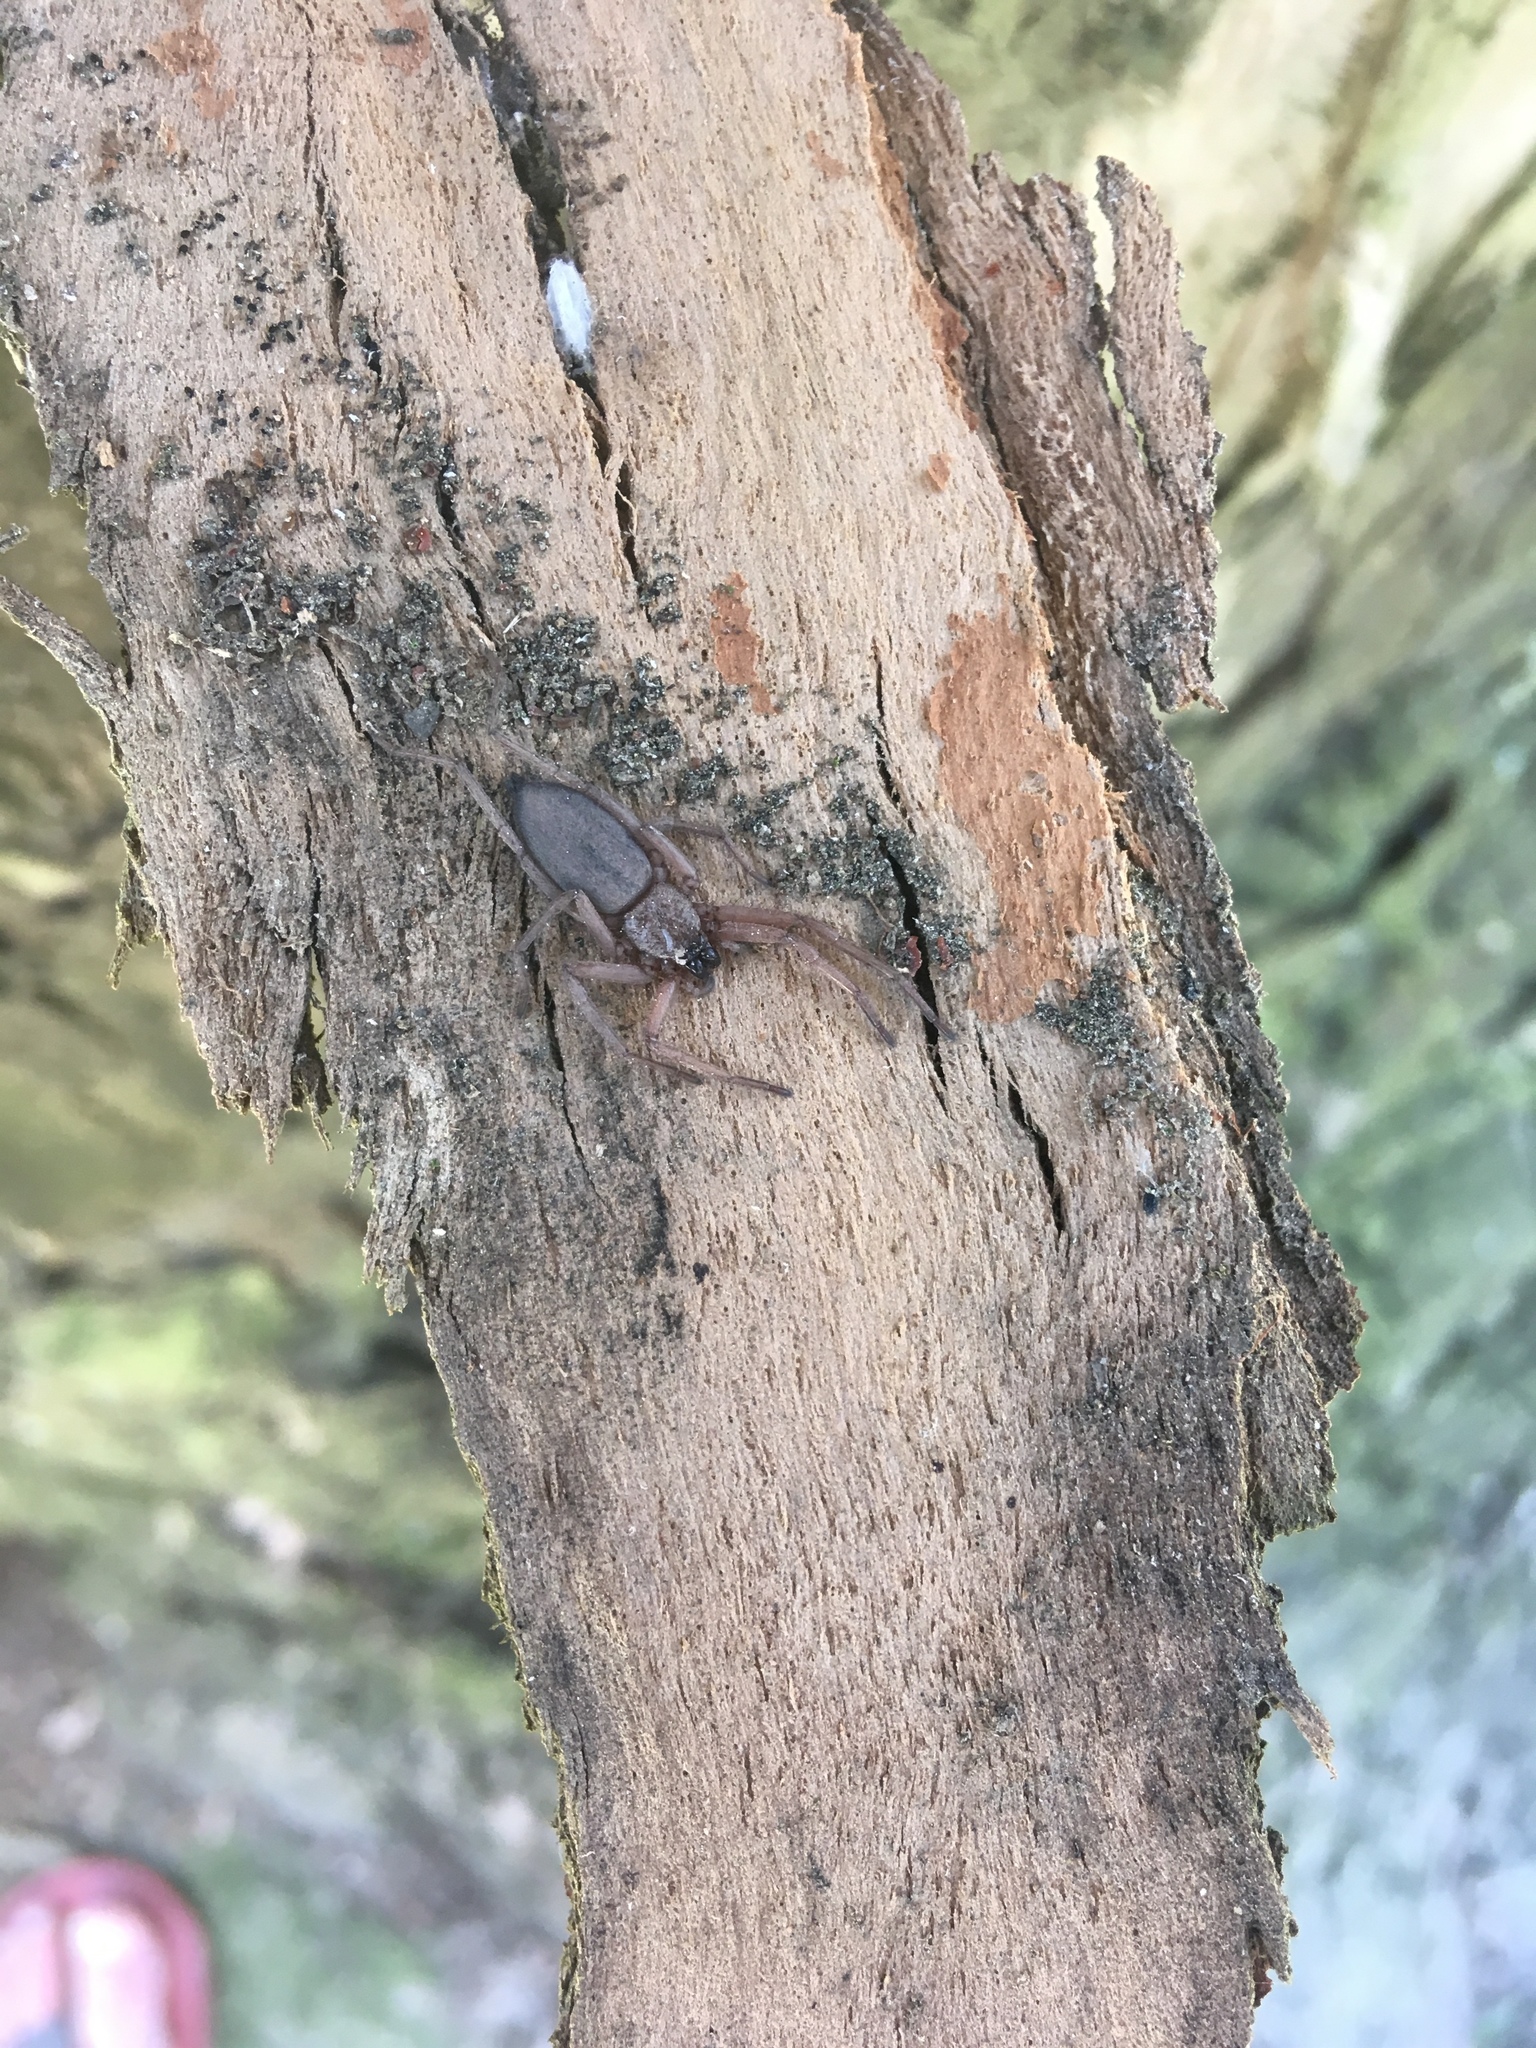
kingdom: Animalia
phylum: Arthropoda
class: Arachnida
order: Araneae
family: Trochanteriidae
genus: Hemicloea
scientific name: Hemicloea rogenhoferi
